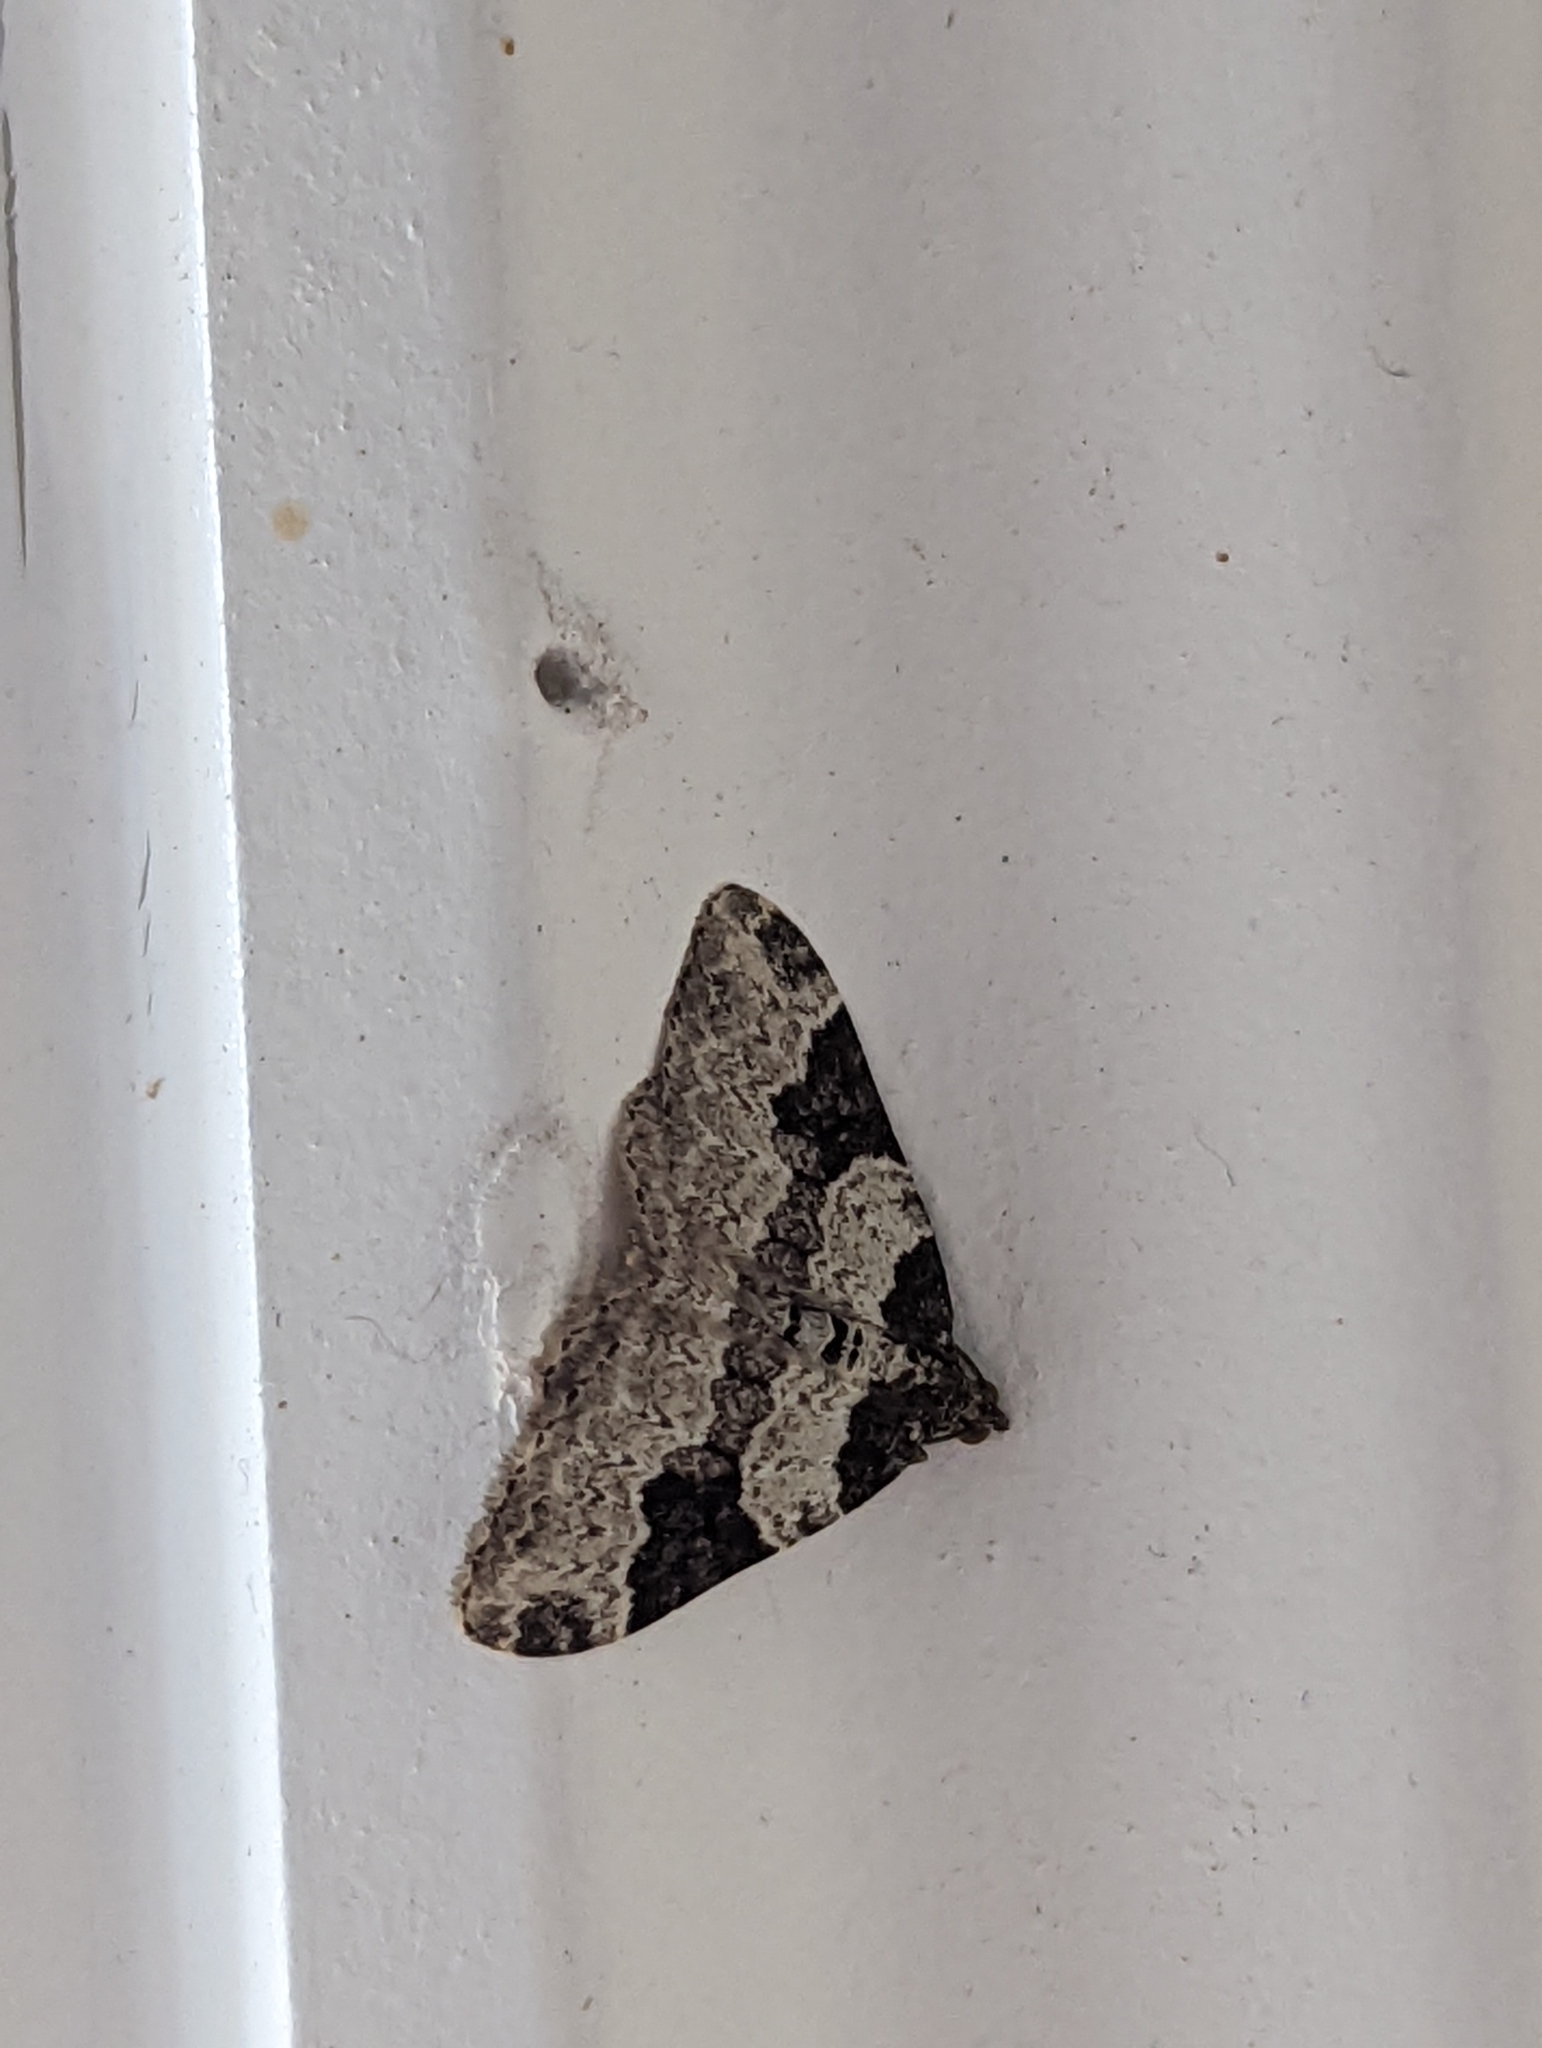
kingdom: Animalia
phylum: Arthropoda
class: Insecta
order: Lepidoptera
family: Geometridae
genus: Xanthorhoe
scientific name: Xanthorhoe fluctuata
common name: Garden carpet
